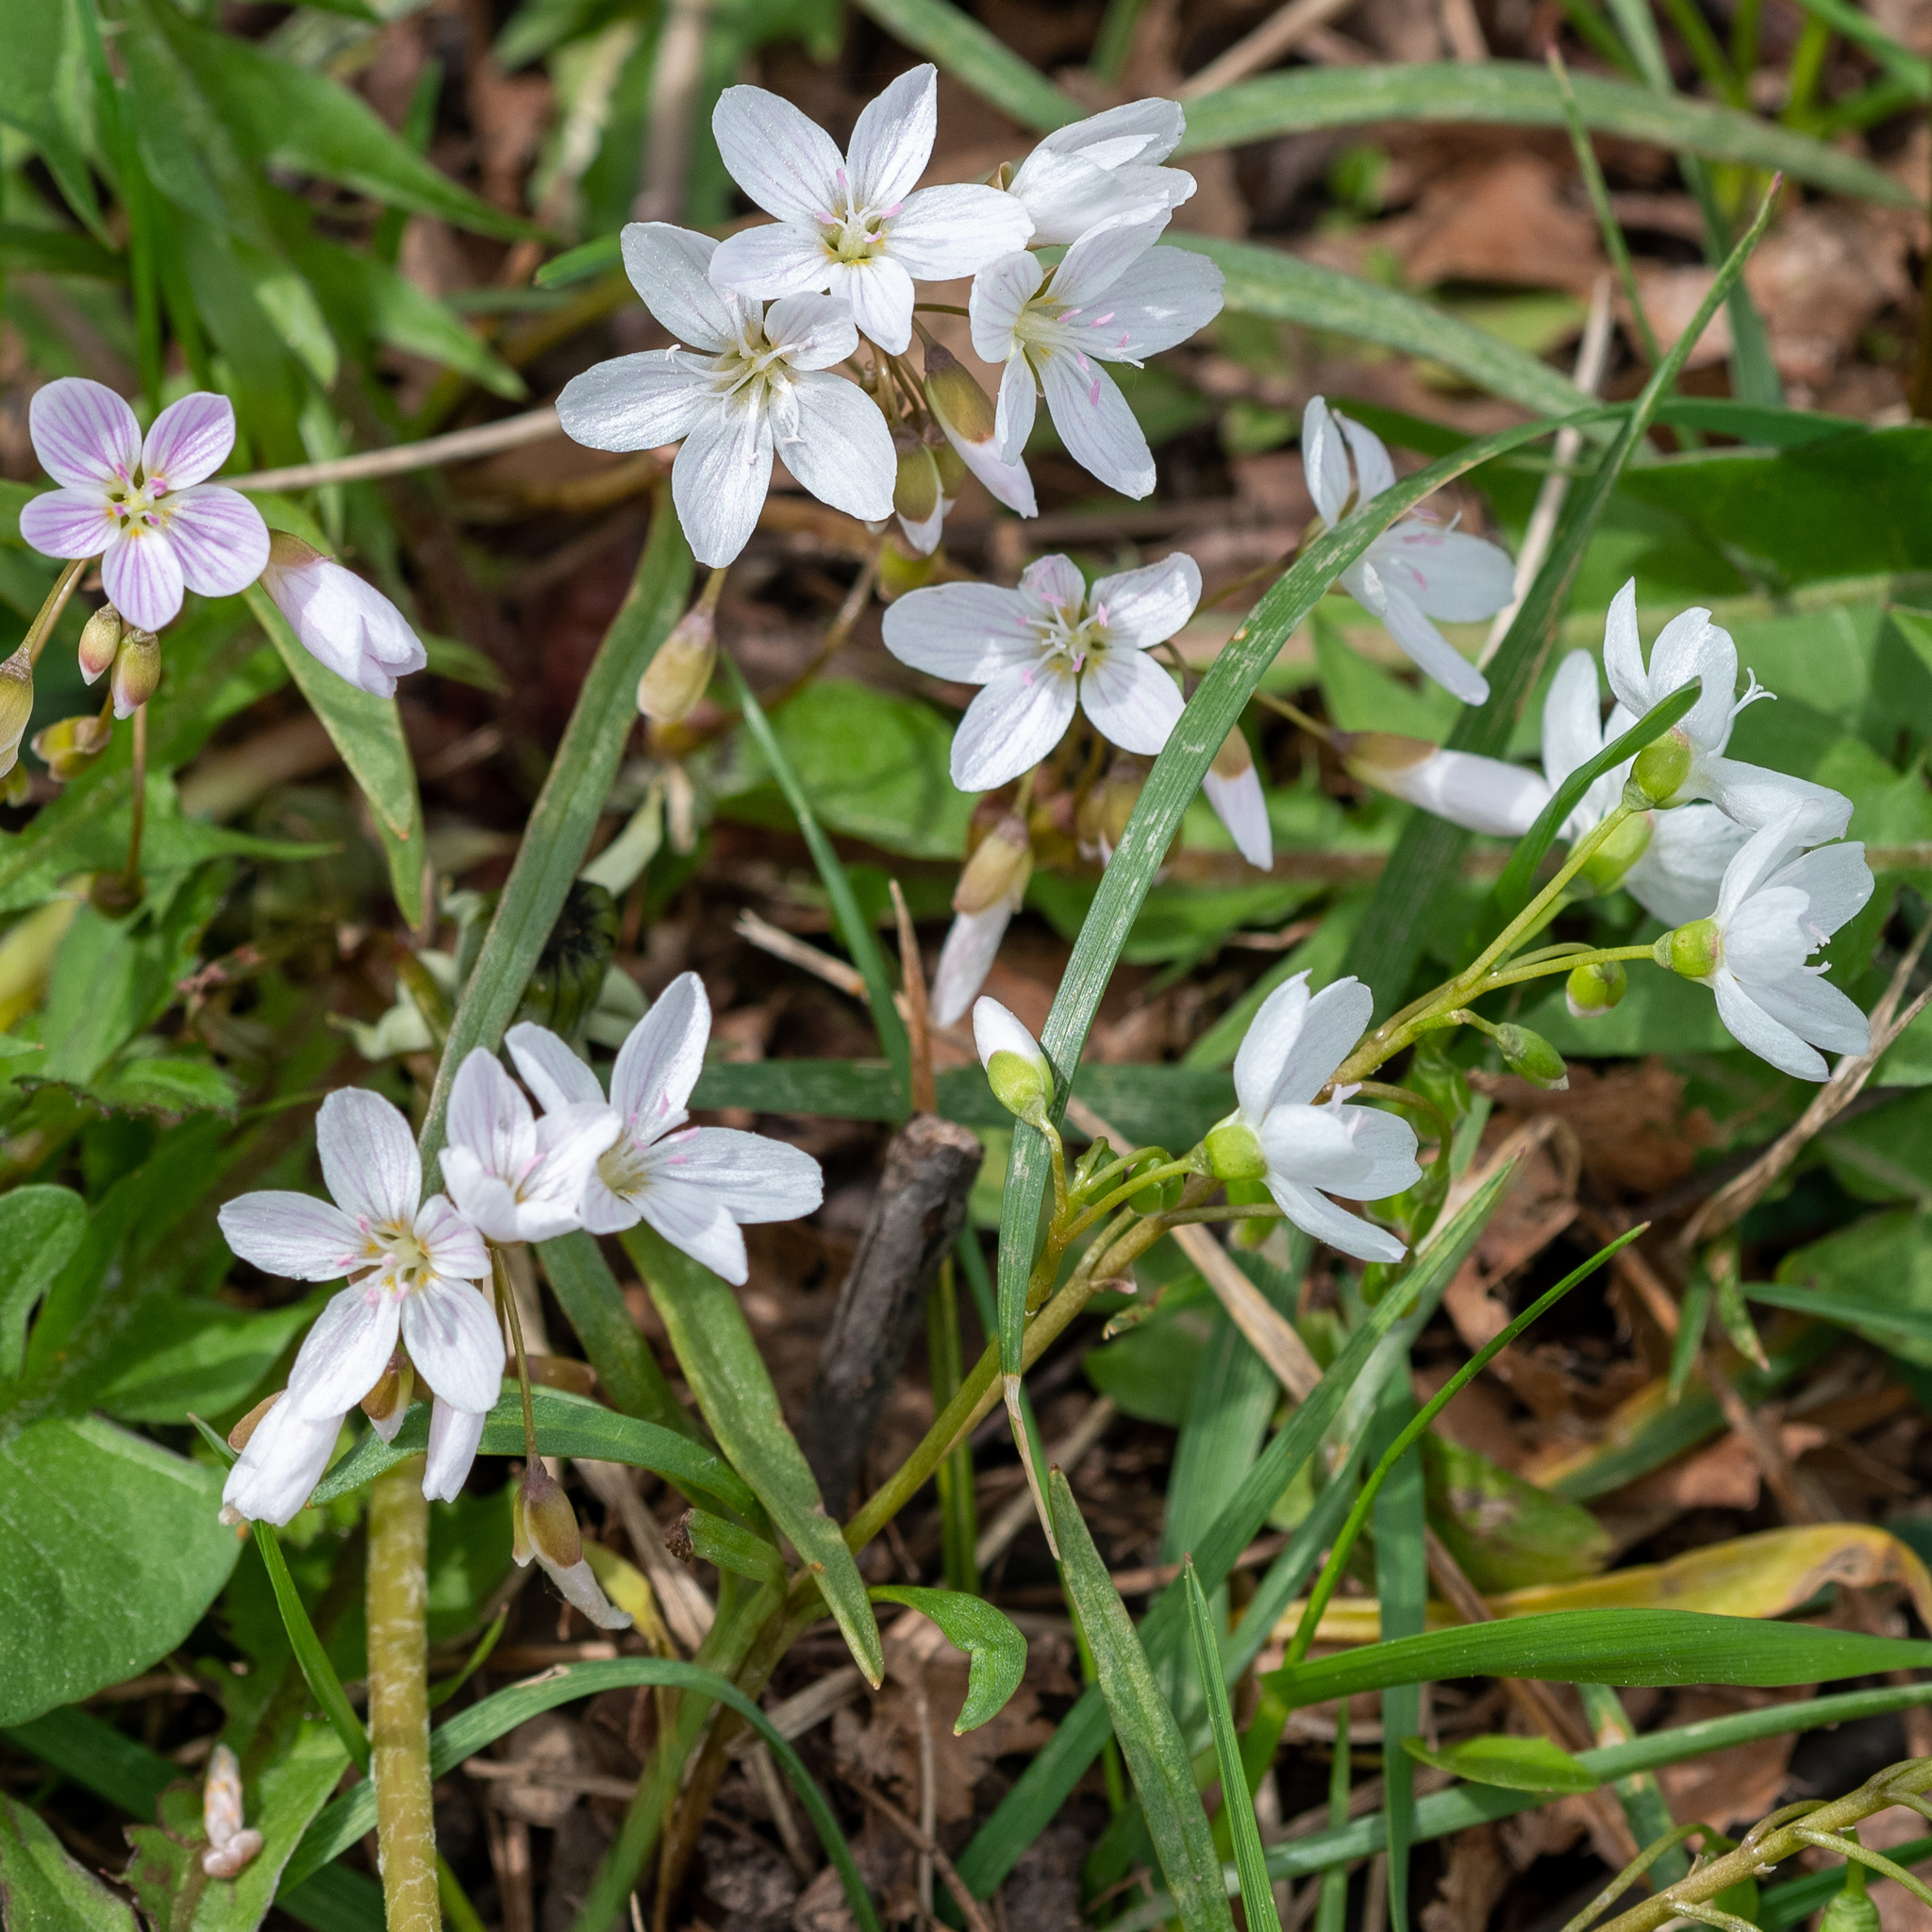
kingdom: Plantae
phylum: Tracheophyta
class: Magnoliopsida
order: Caryophyllales
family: Montiaceae
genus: Claytonia
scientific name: Claytonia virginica
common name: Virginia springbeauty
